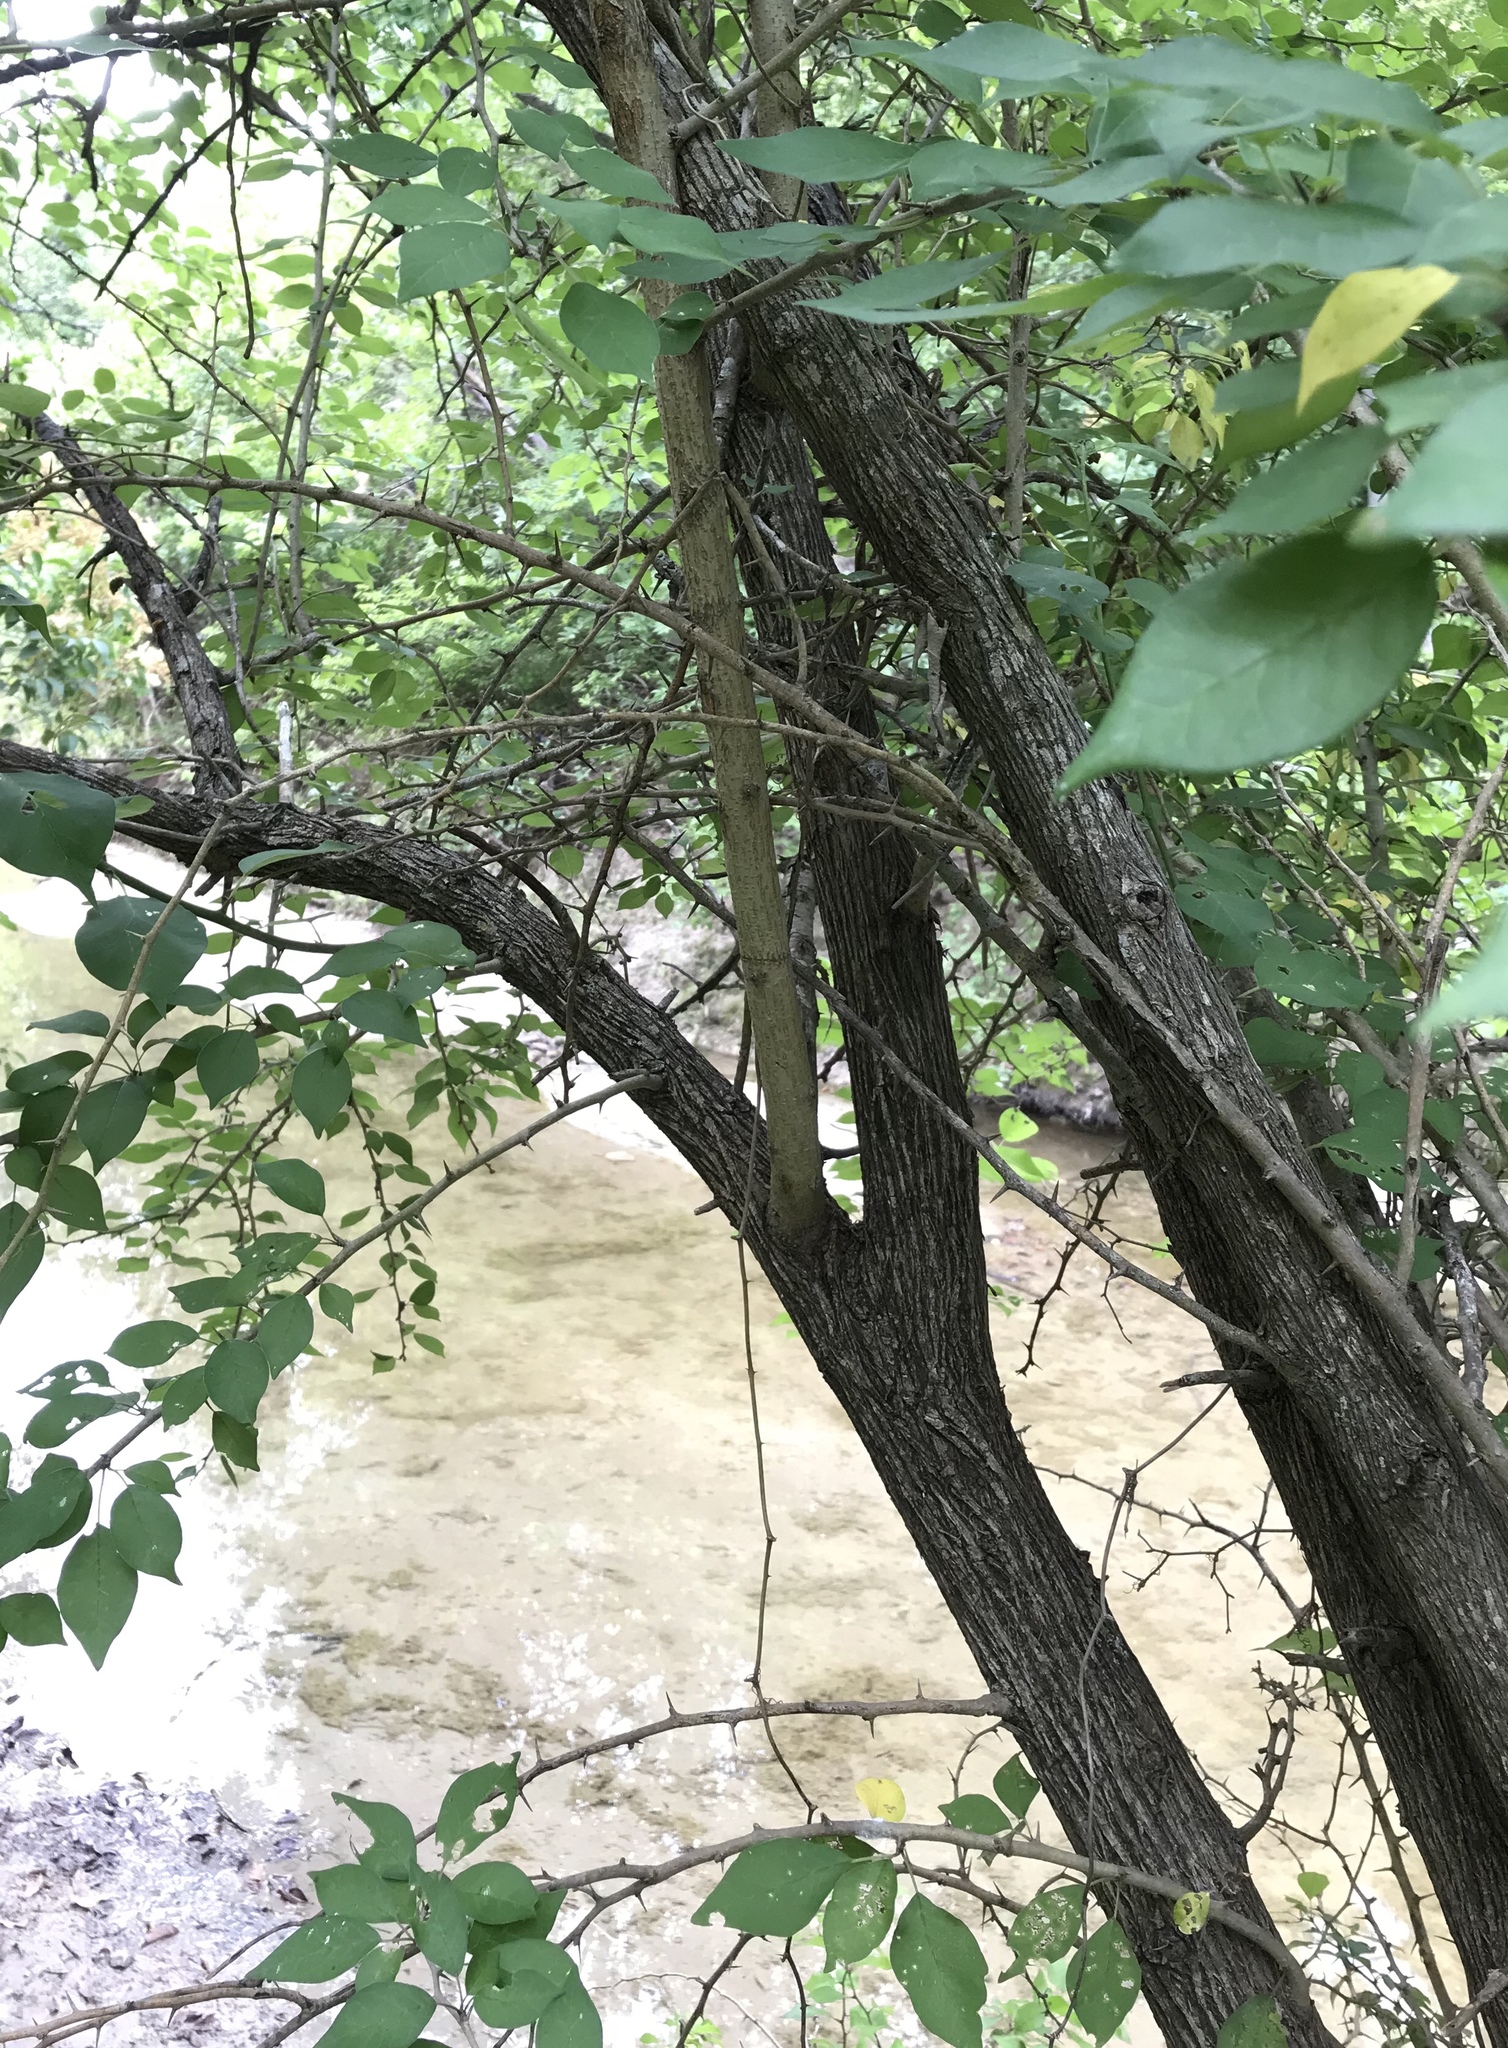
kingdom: Plantae
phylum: Tracheophyta
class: Magnoliopsida
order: Rosales
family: Moraceae
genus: Maclura
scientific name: Maclura pomifera
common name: Osage-orange
